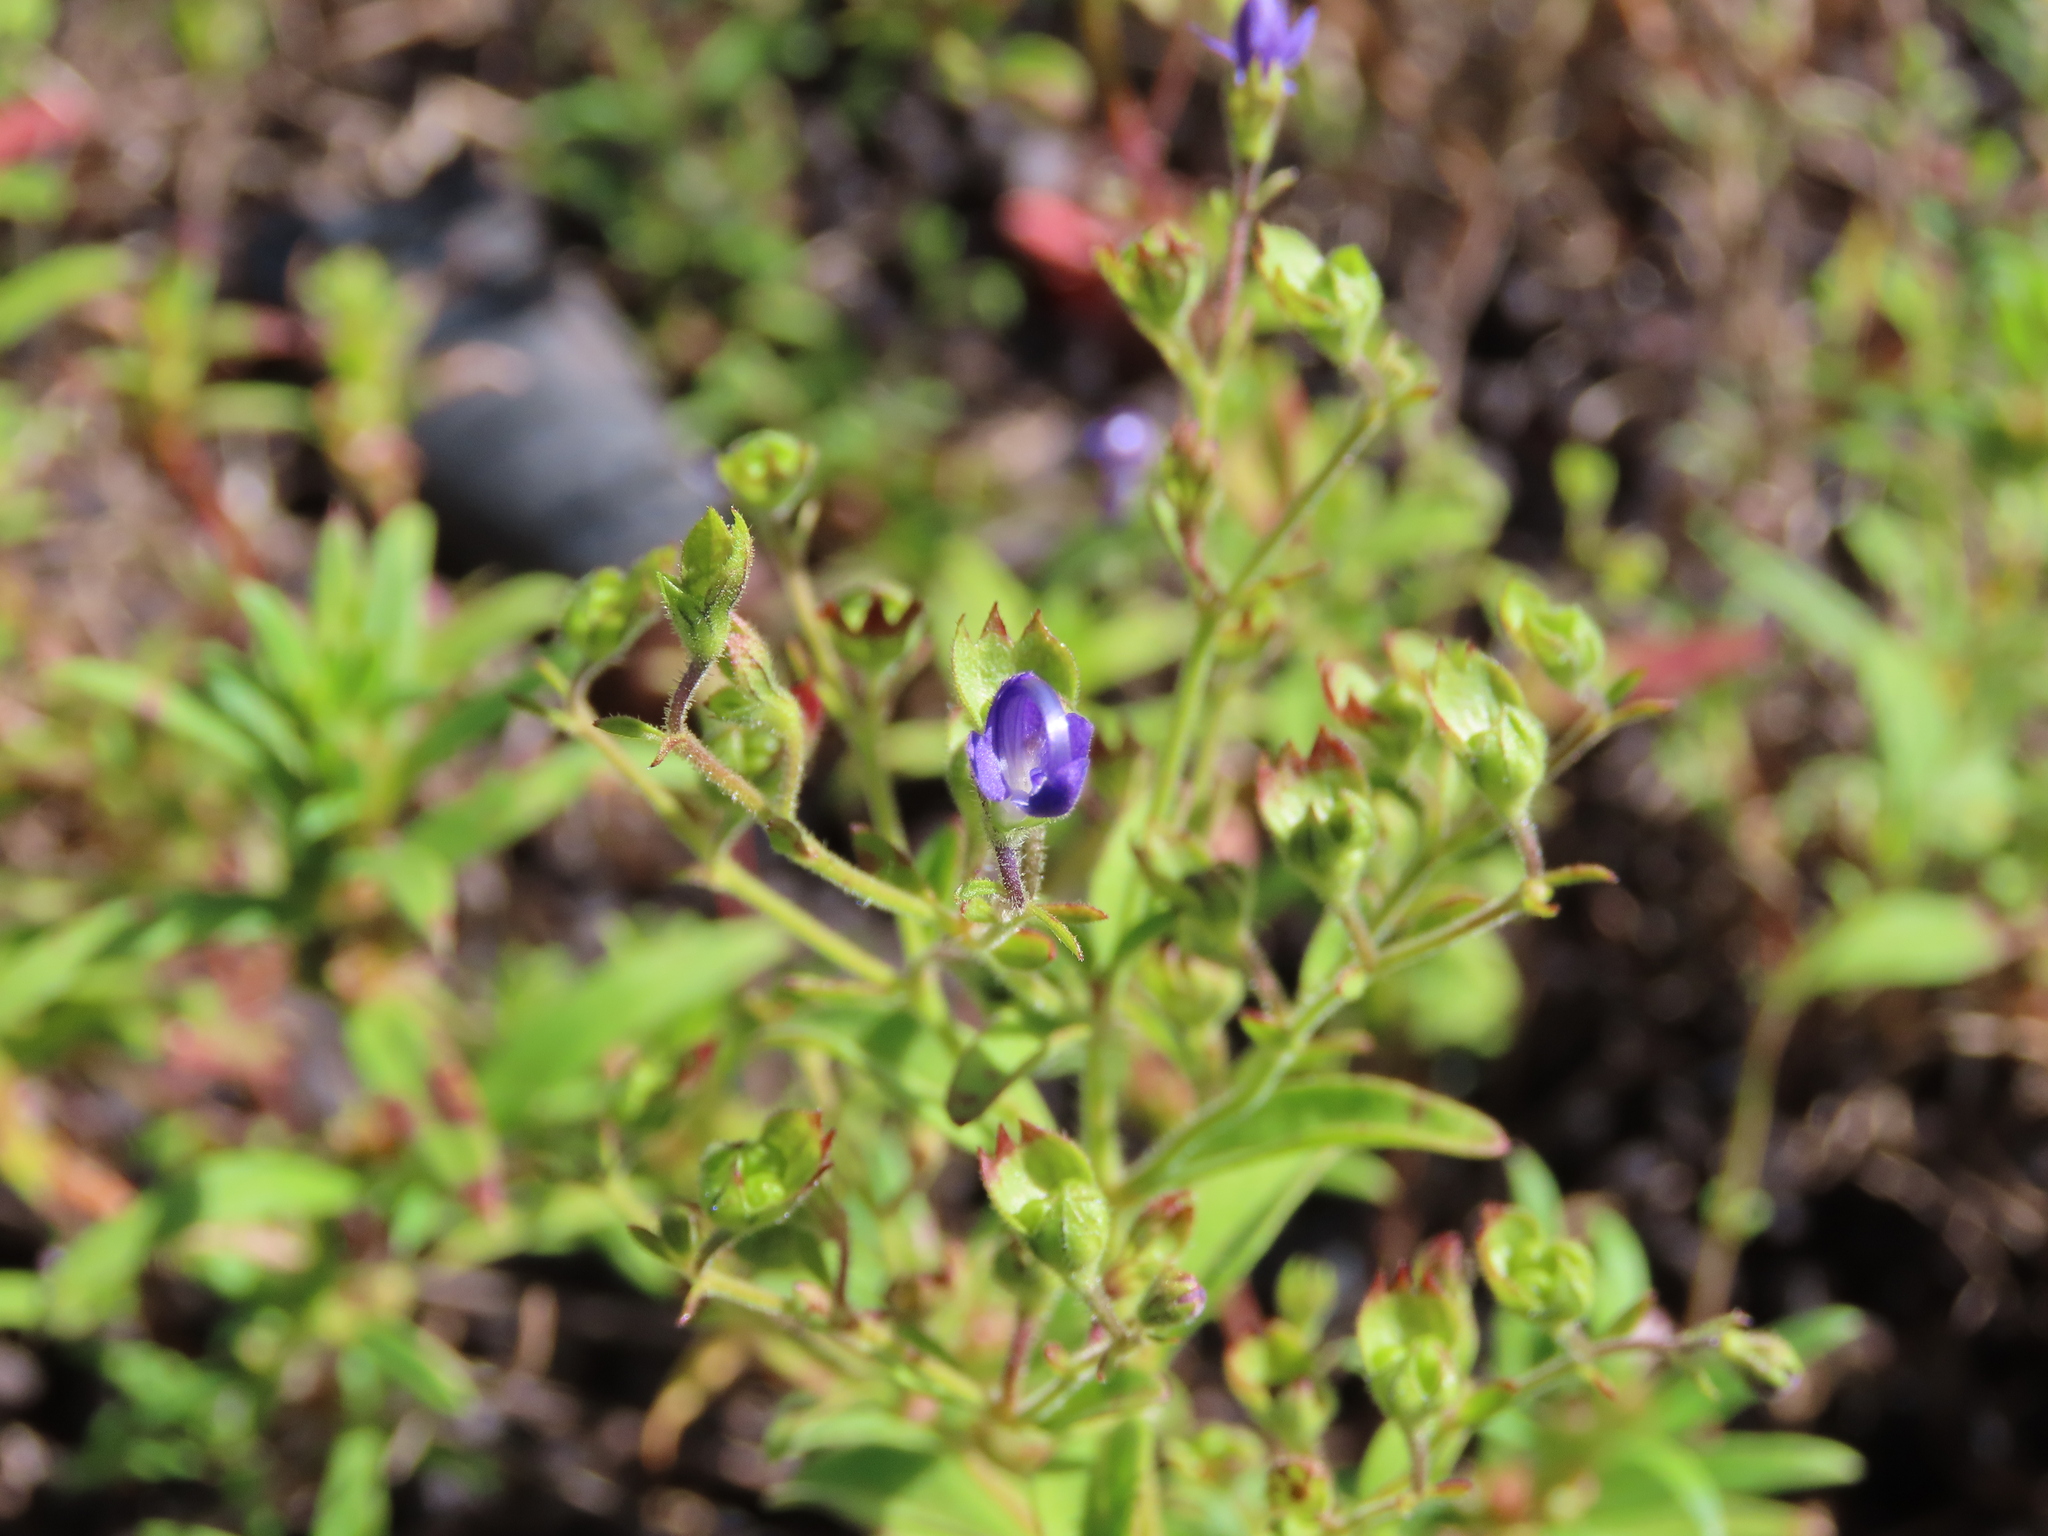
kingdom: Plantae
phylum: Tracheophyta
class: Magnoliopsida
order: Lamiales
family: Lamiaceae
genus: Trichostema
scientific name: Trichostema dichotomum
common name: Bastard pennyroyal
